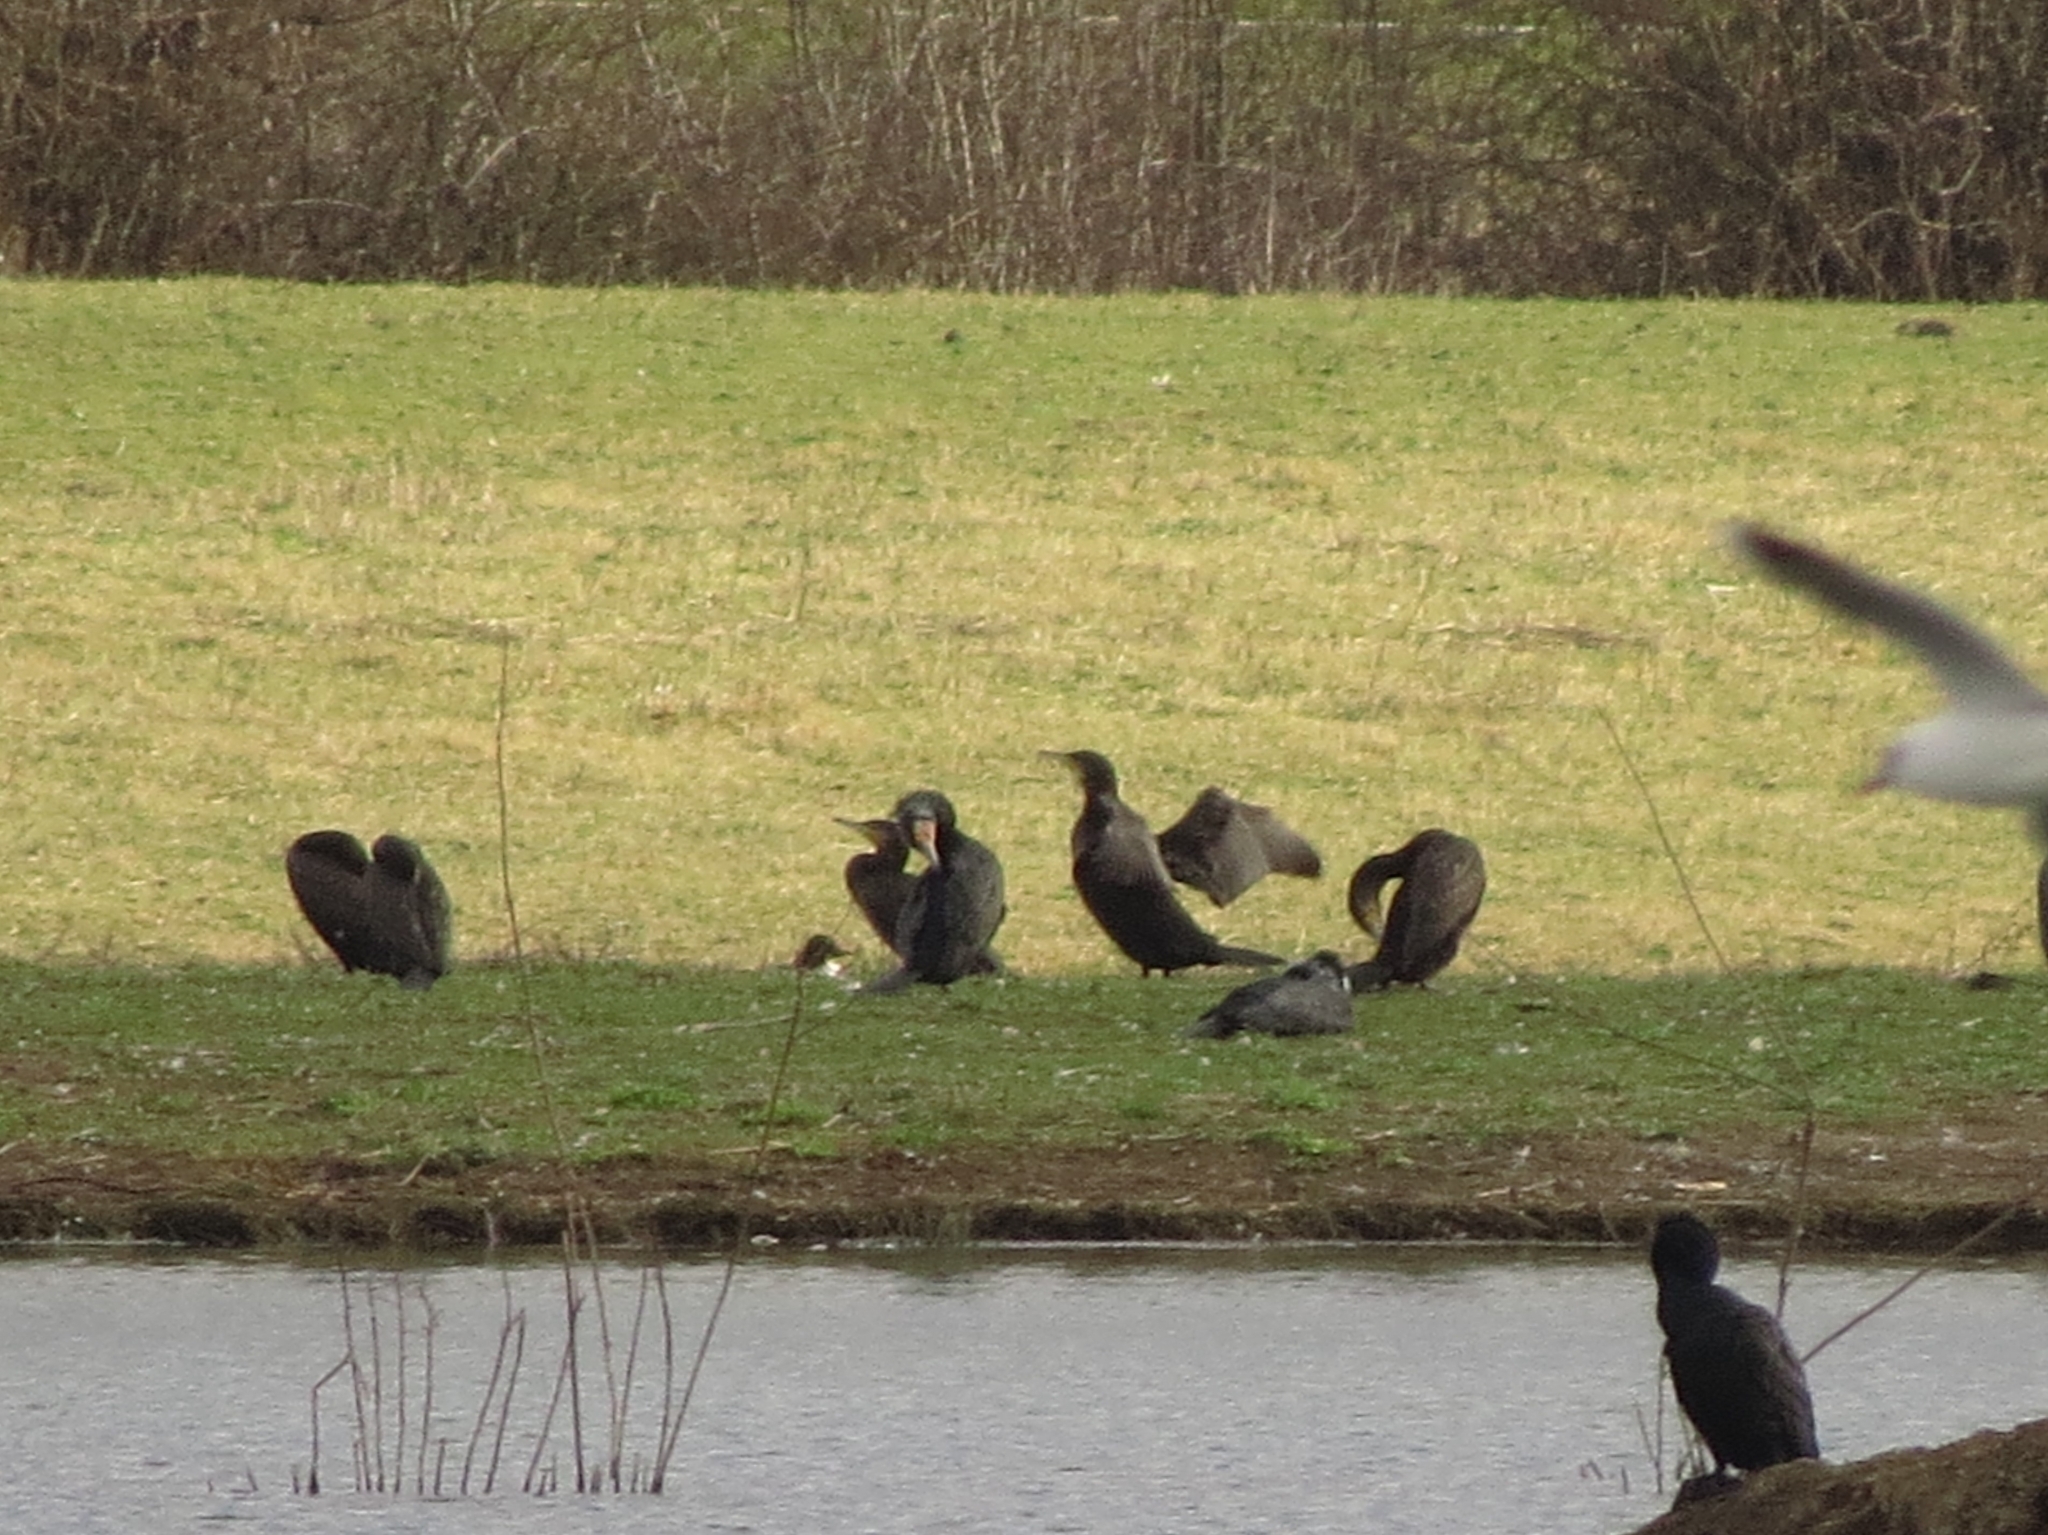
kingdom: Animalia
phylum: Chordata
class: Aves
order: Suliformes
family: Phalacrocoracidae
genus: Phalacrocorax
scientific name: Phalacrocorax carbo
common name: Great cormorant
